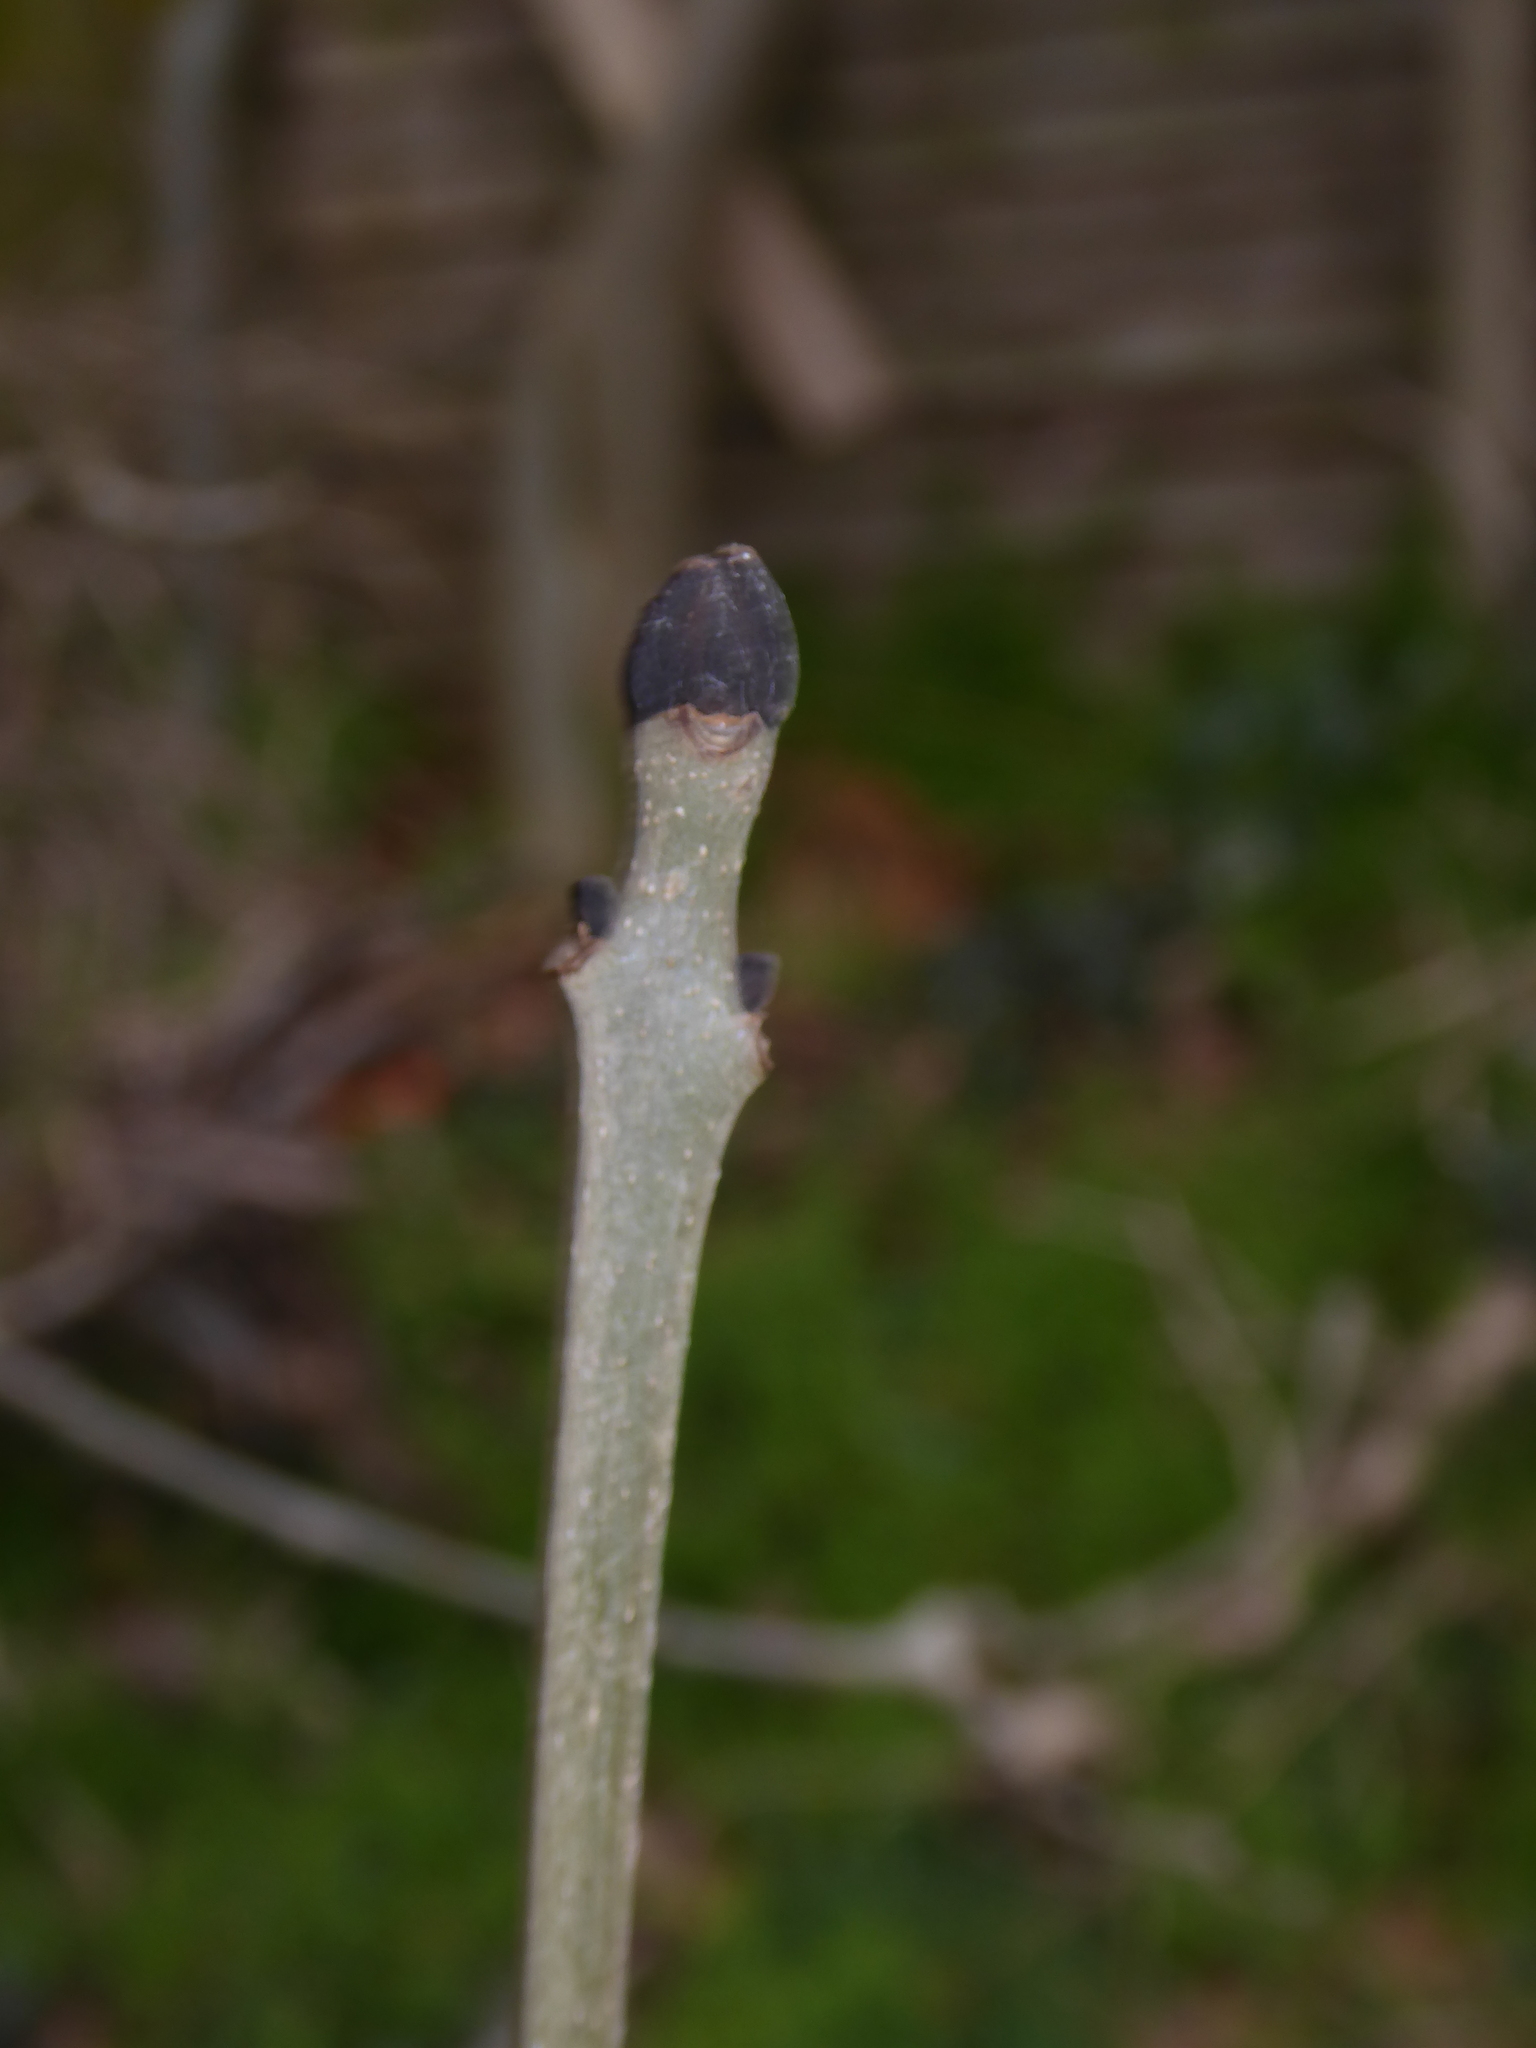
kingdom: Plantae
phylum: Tracheophyta
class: Magnoliopsida
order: Lamiales
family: Oleaceae
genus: Fraxinus
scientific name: Fraxinus excelsior
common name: European ash
